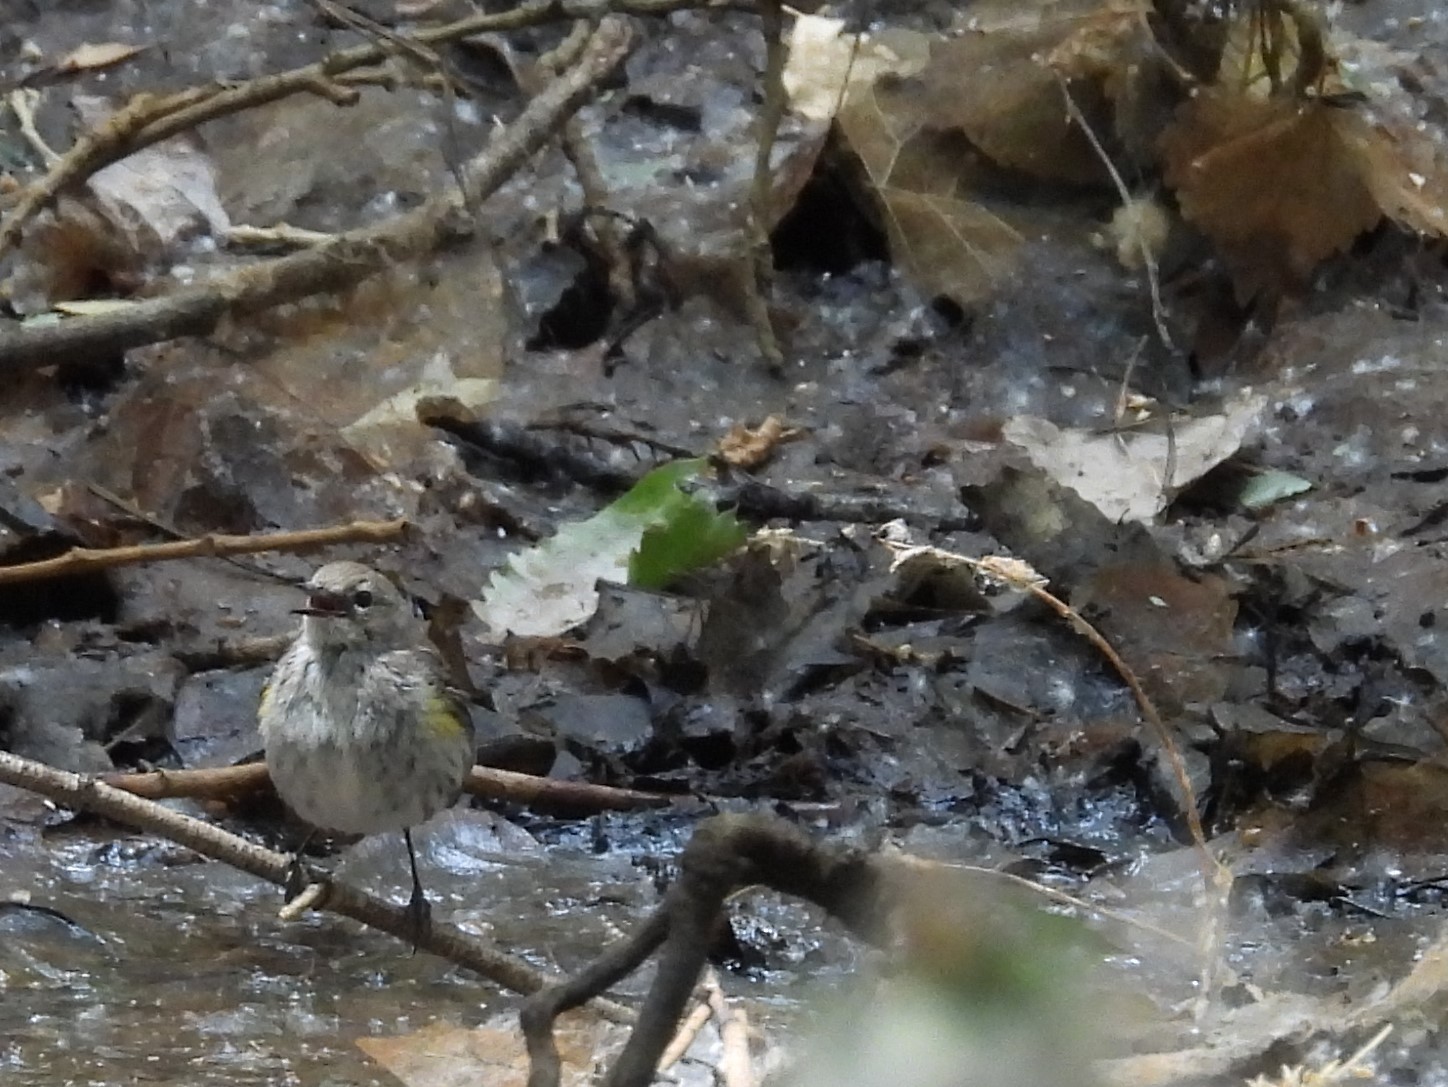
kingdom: Animalia
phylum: Chordata
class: Aves
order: Passeriformes
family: Parulidae
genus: Setophaga
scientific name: Setophaga coronata
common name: Myrtle warbler
